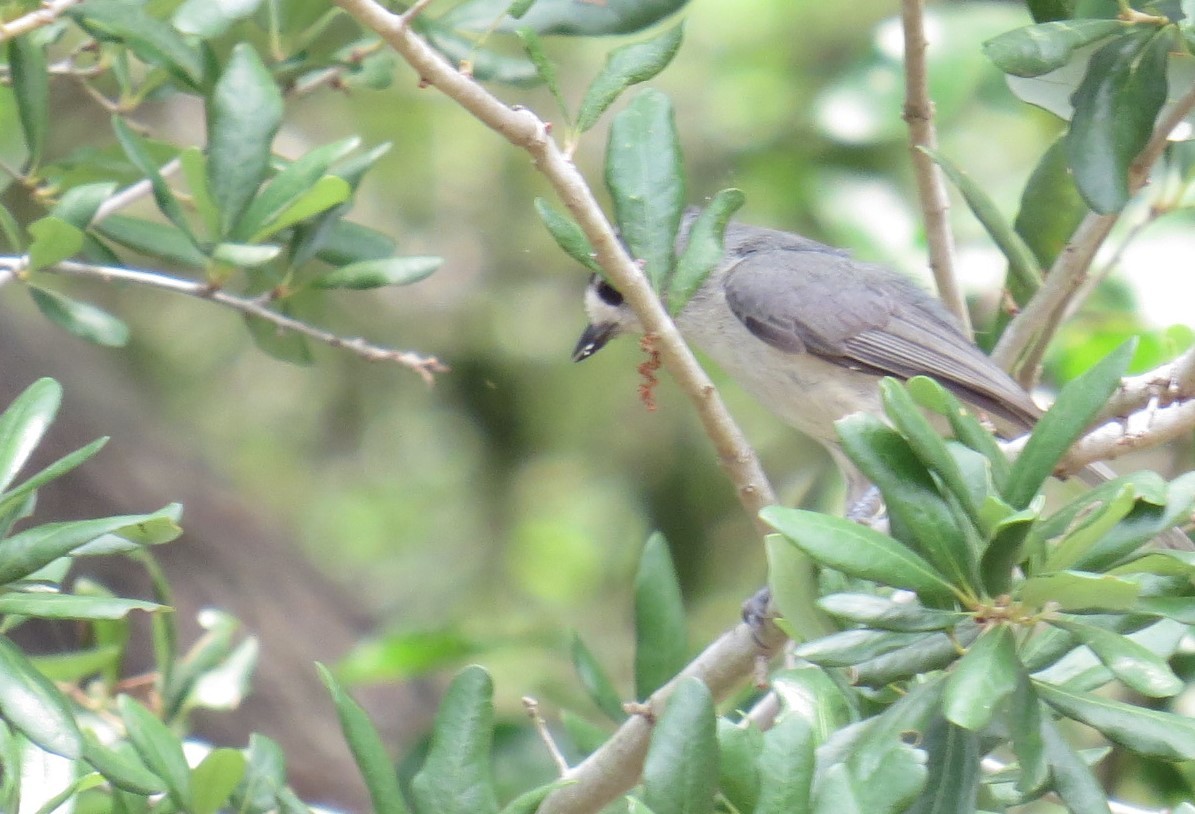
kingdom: Animalia
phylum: Chordata
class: Aves
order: Passeriformes
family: Paridae
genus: Baeolophus
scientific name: Baeolophus atricristatus
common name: Black-crested titmouse
